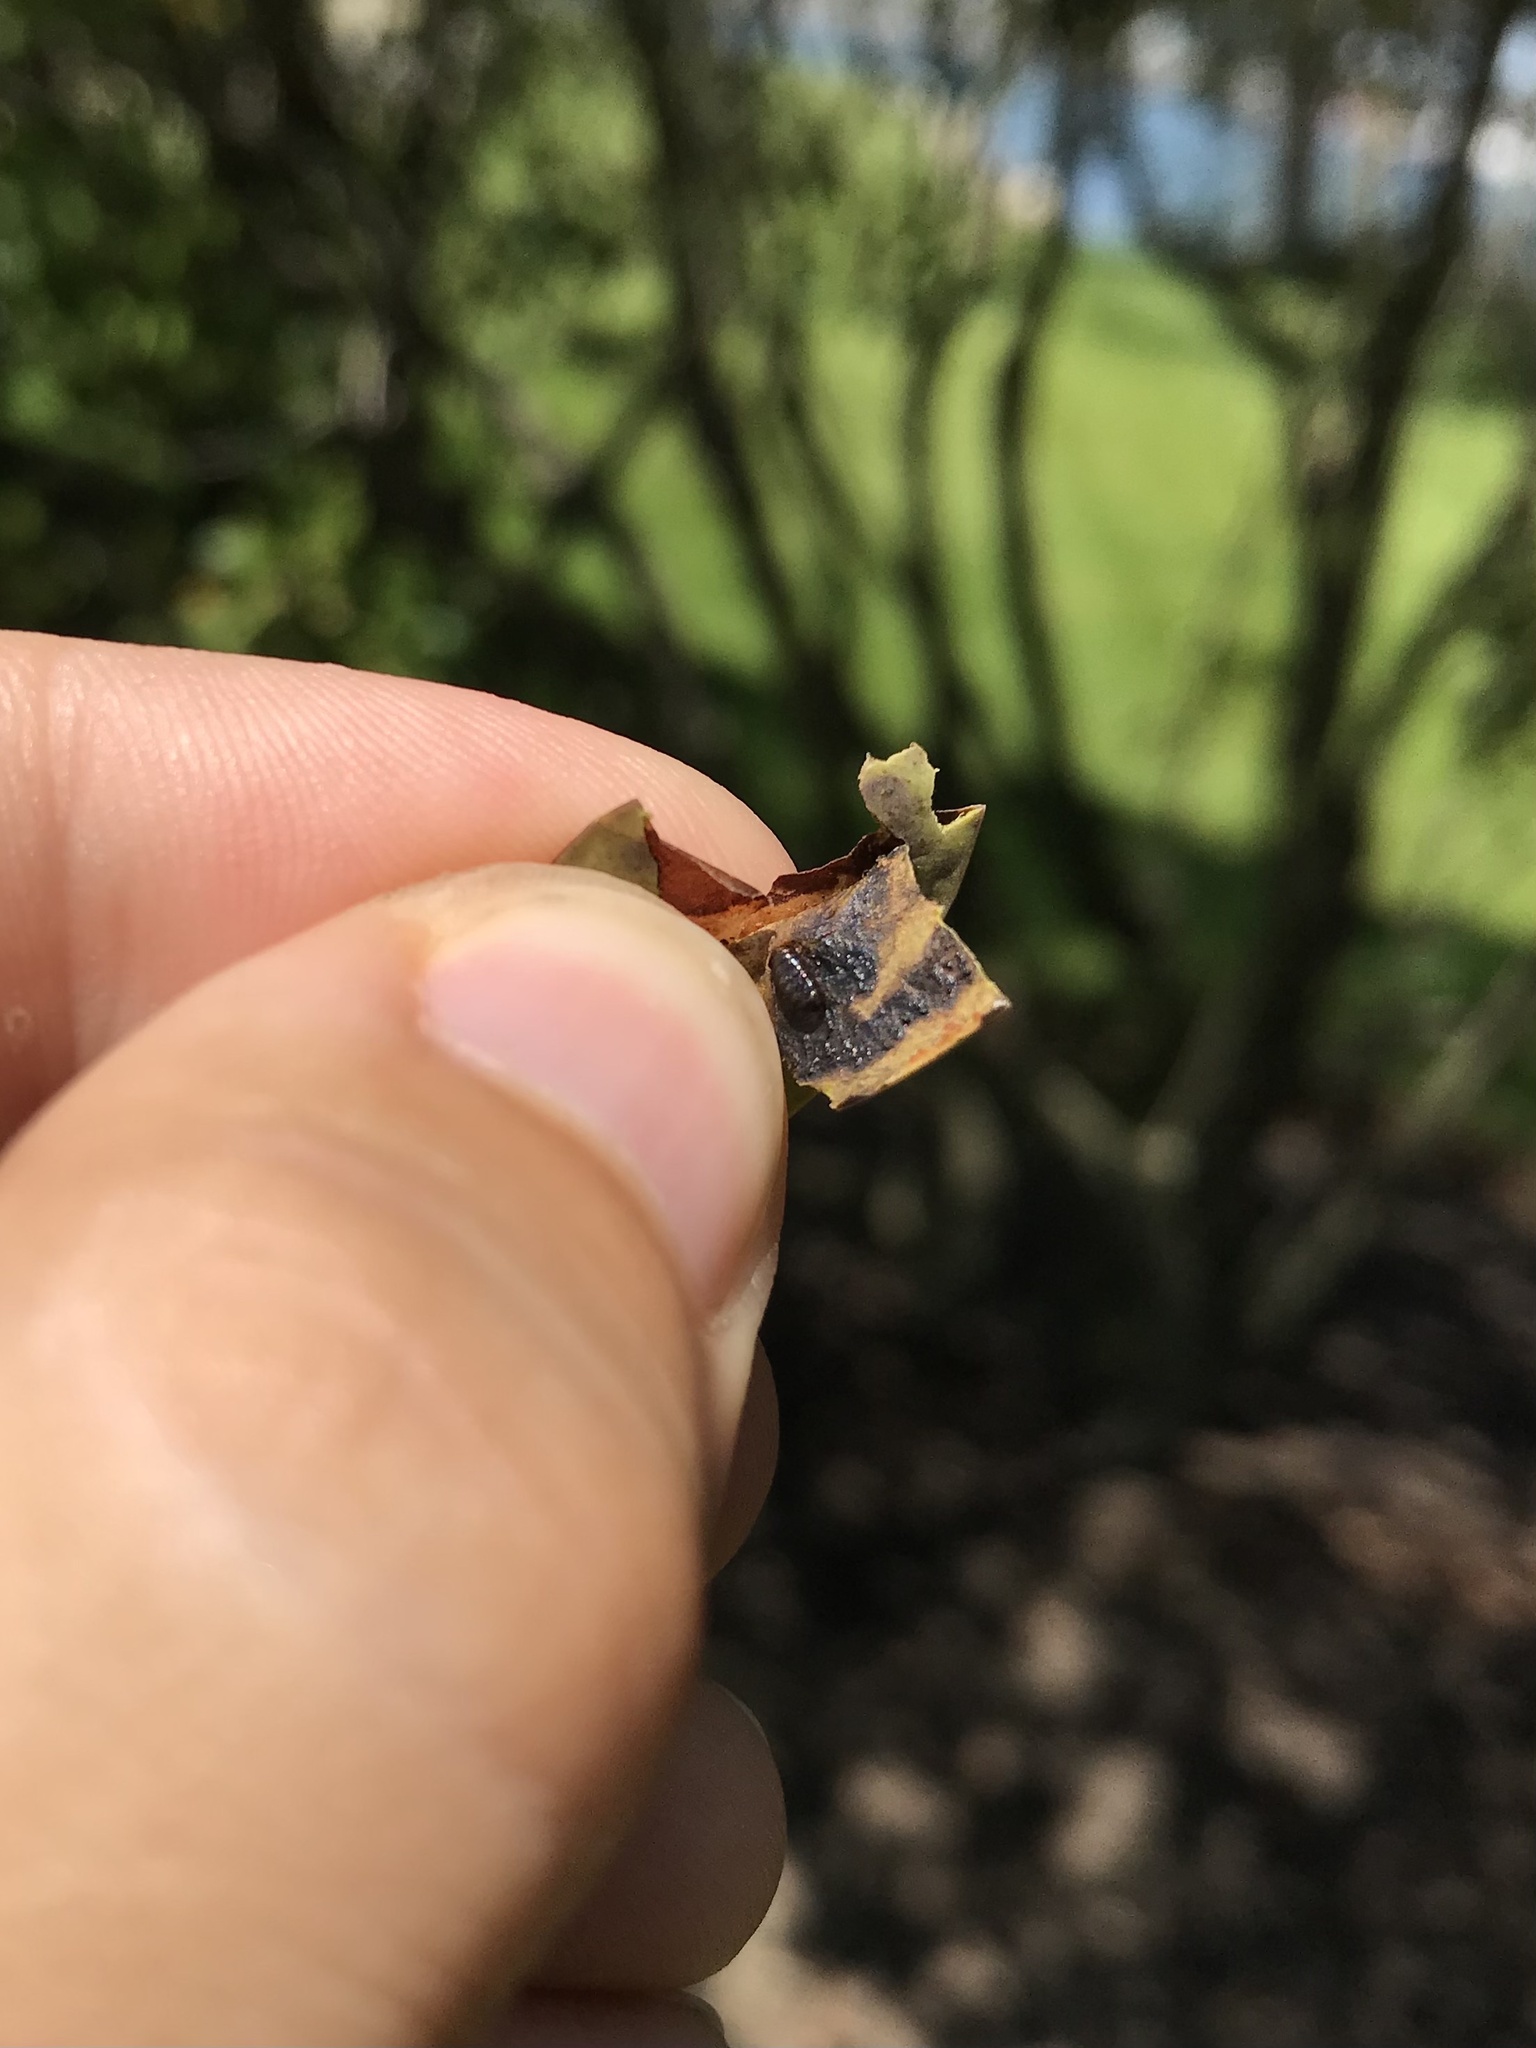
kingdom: Animalia
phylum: Arthropoda
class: Insecta
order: Diptera
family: Agromyzidae
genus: Phytomyza
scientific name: Phytomyza glabricola
